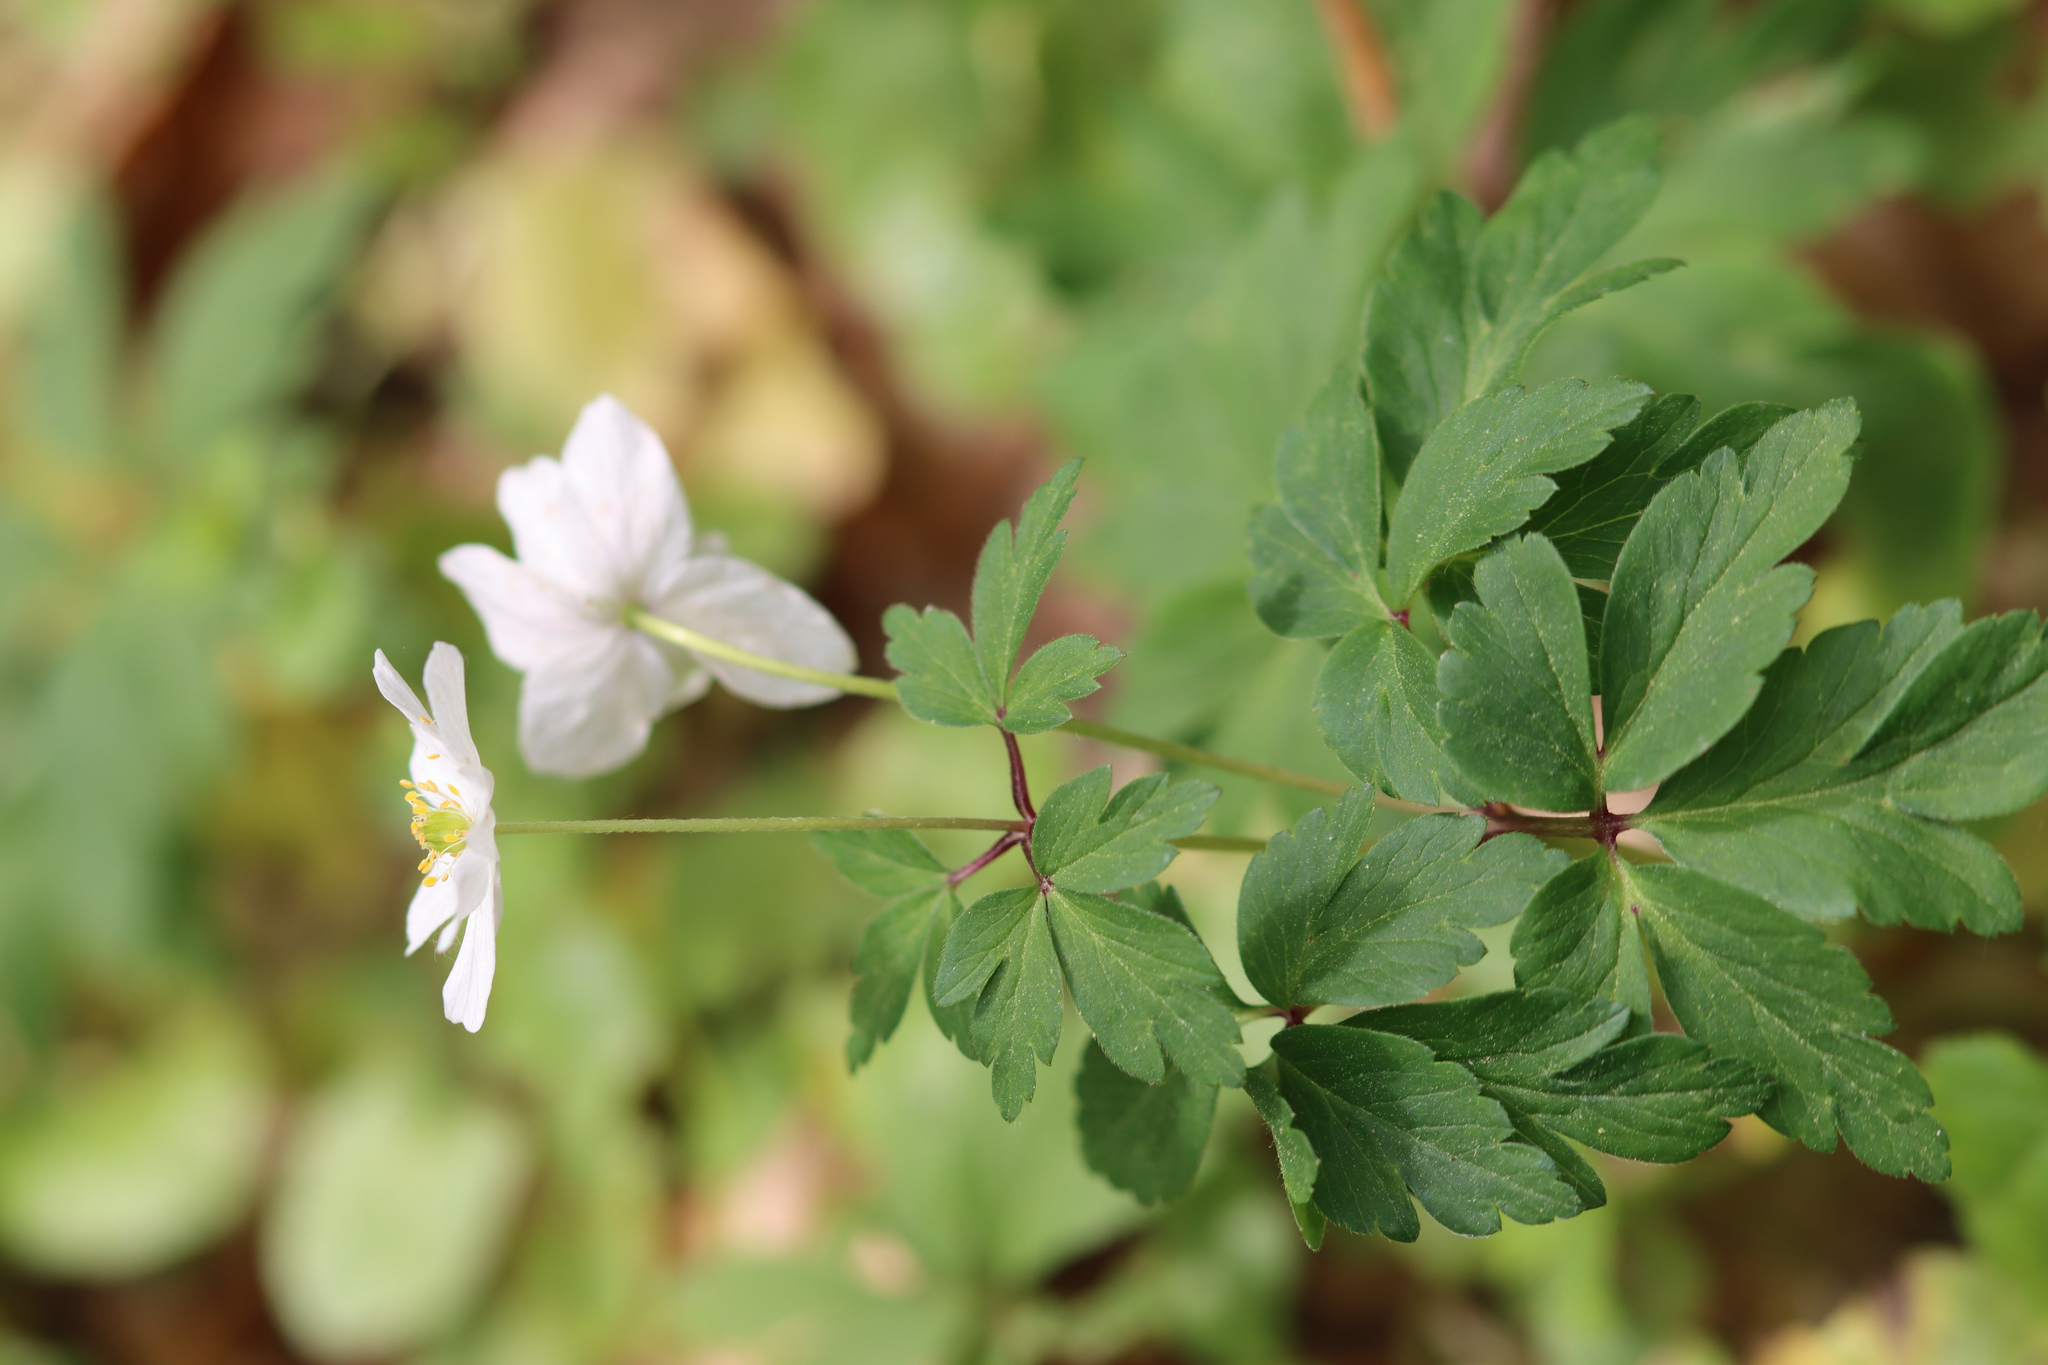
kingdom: Plantae
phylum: Tracheophyta
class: Magnoliopsida
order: Ranunculales
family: Ranunculaceae
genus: Anemone
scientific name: Anemone nemorosa
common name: Wood anemone
